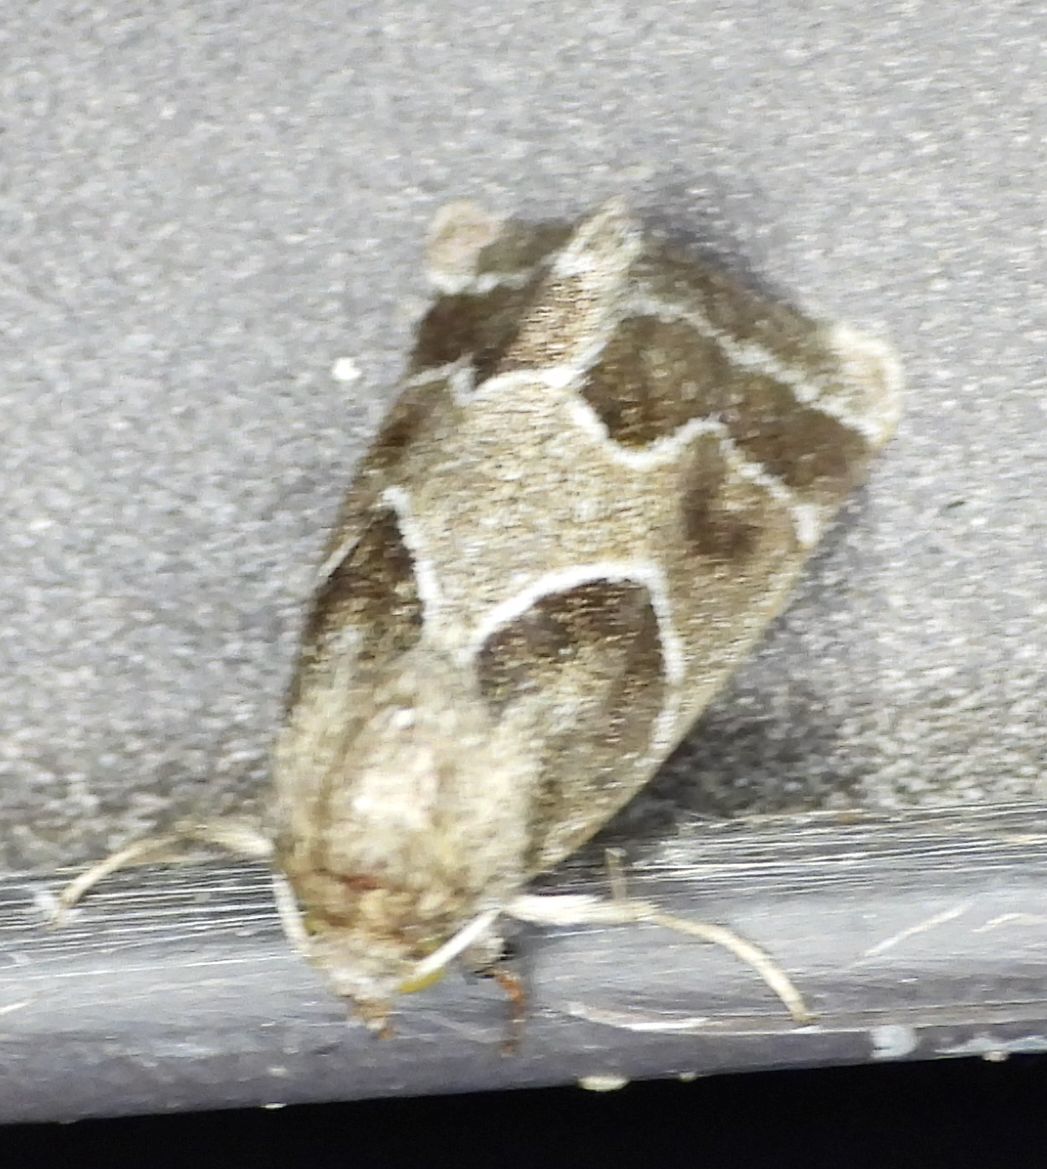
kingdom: Animalia
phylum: Arthropoda
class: Insecta
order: Lepidoptera
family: Noctuidae
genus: Schinia
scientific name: Schinia rivulosa
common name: Scarce meal-moth
